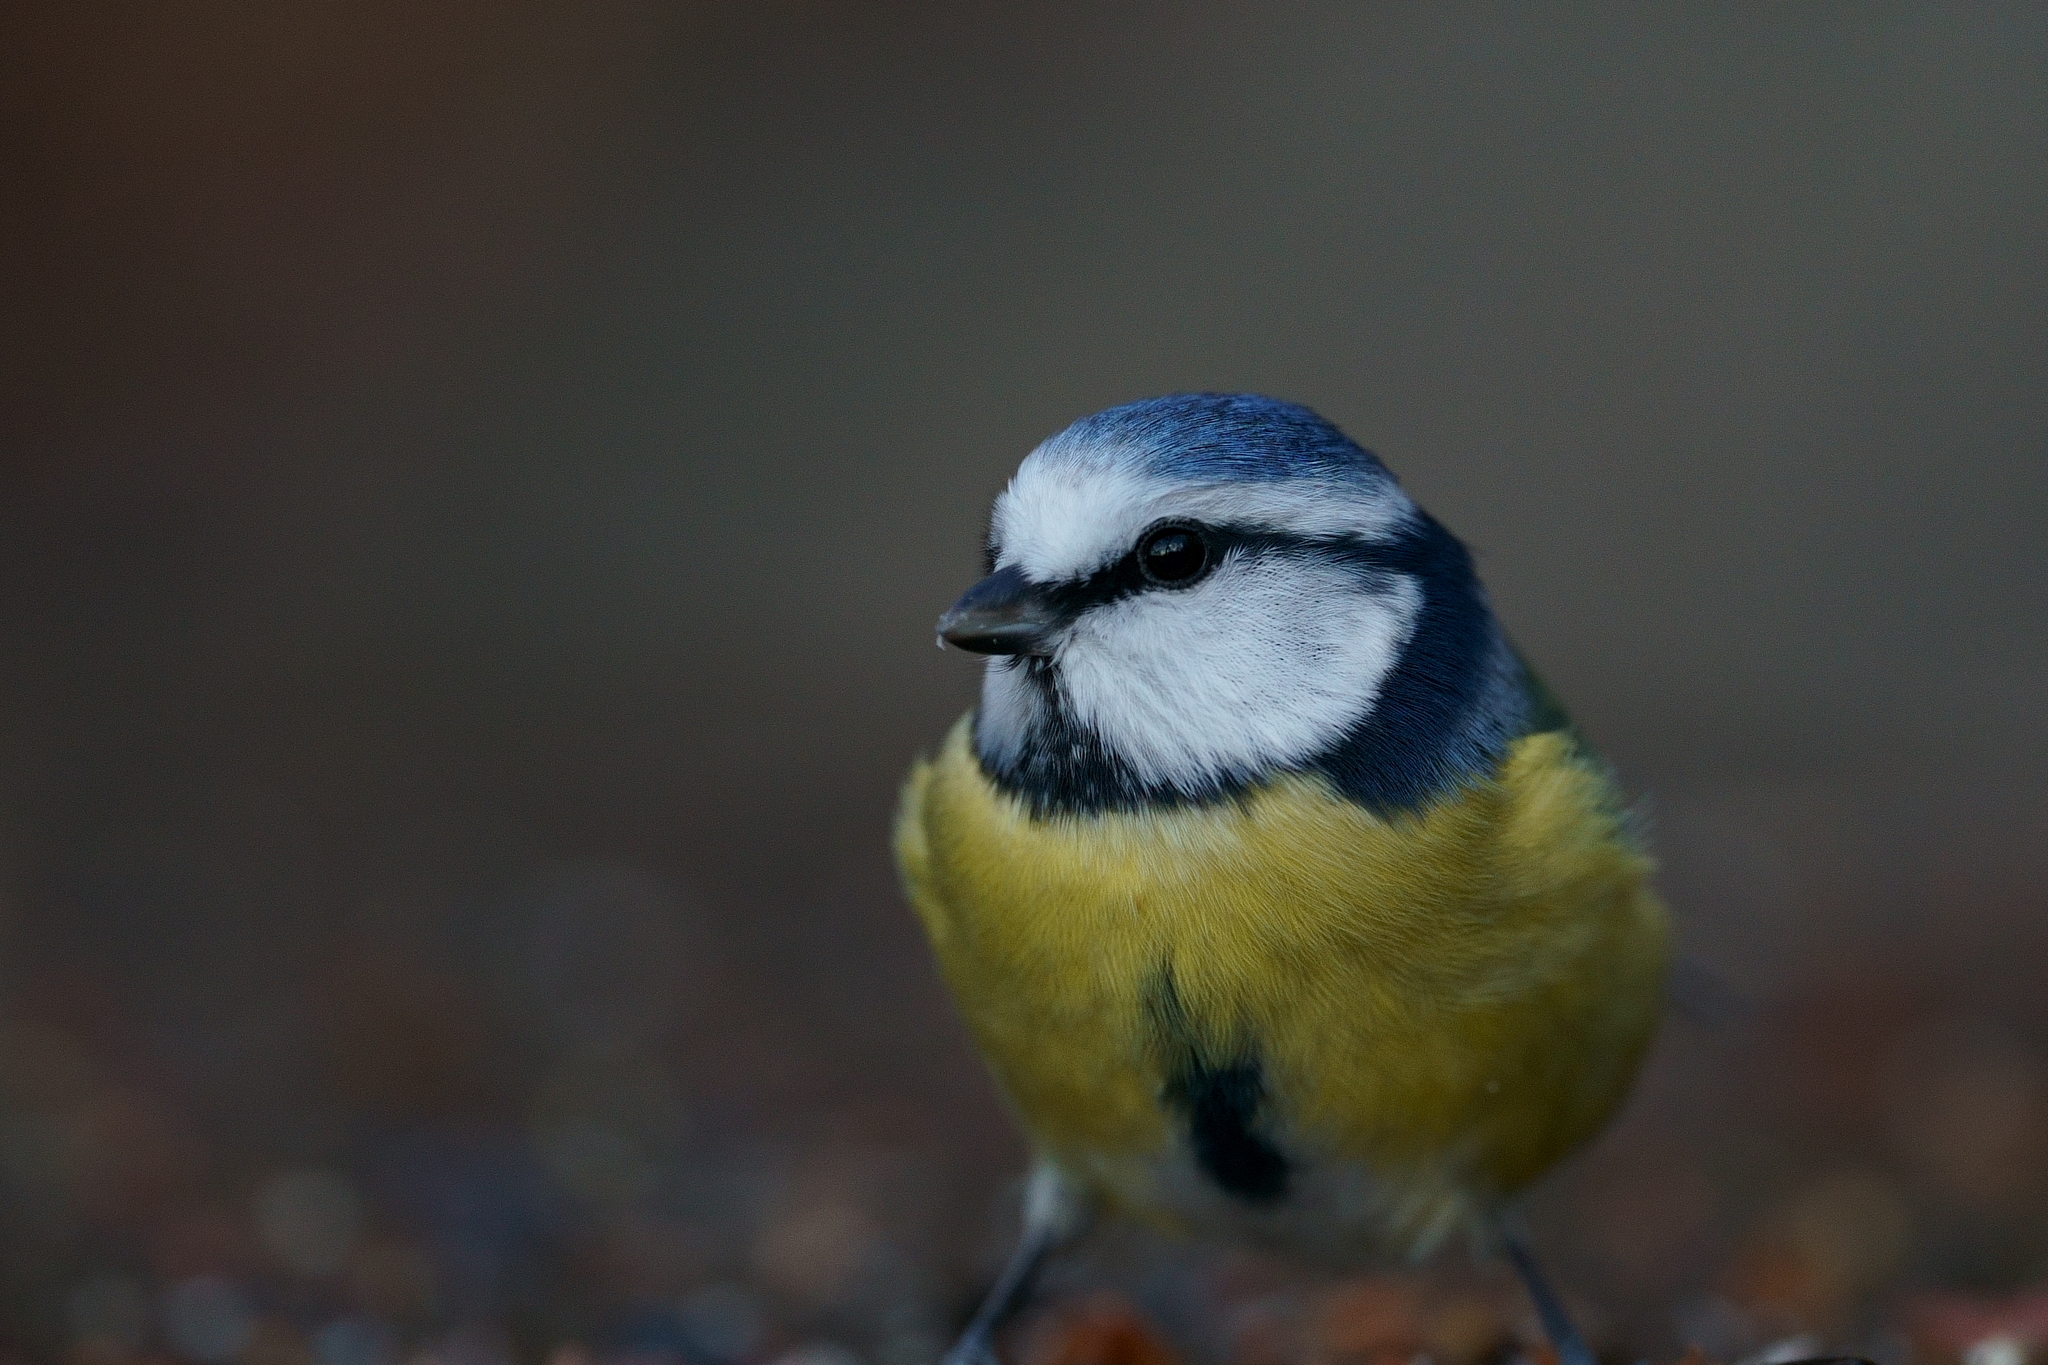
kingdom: Animalia
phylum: Chordata
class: Aves
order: Passeriformes
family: Paridae
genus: Cyanistes
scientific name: Cyanistes caeruleus
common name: Eurasian blue tit
